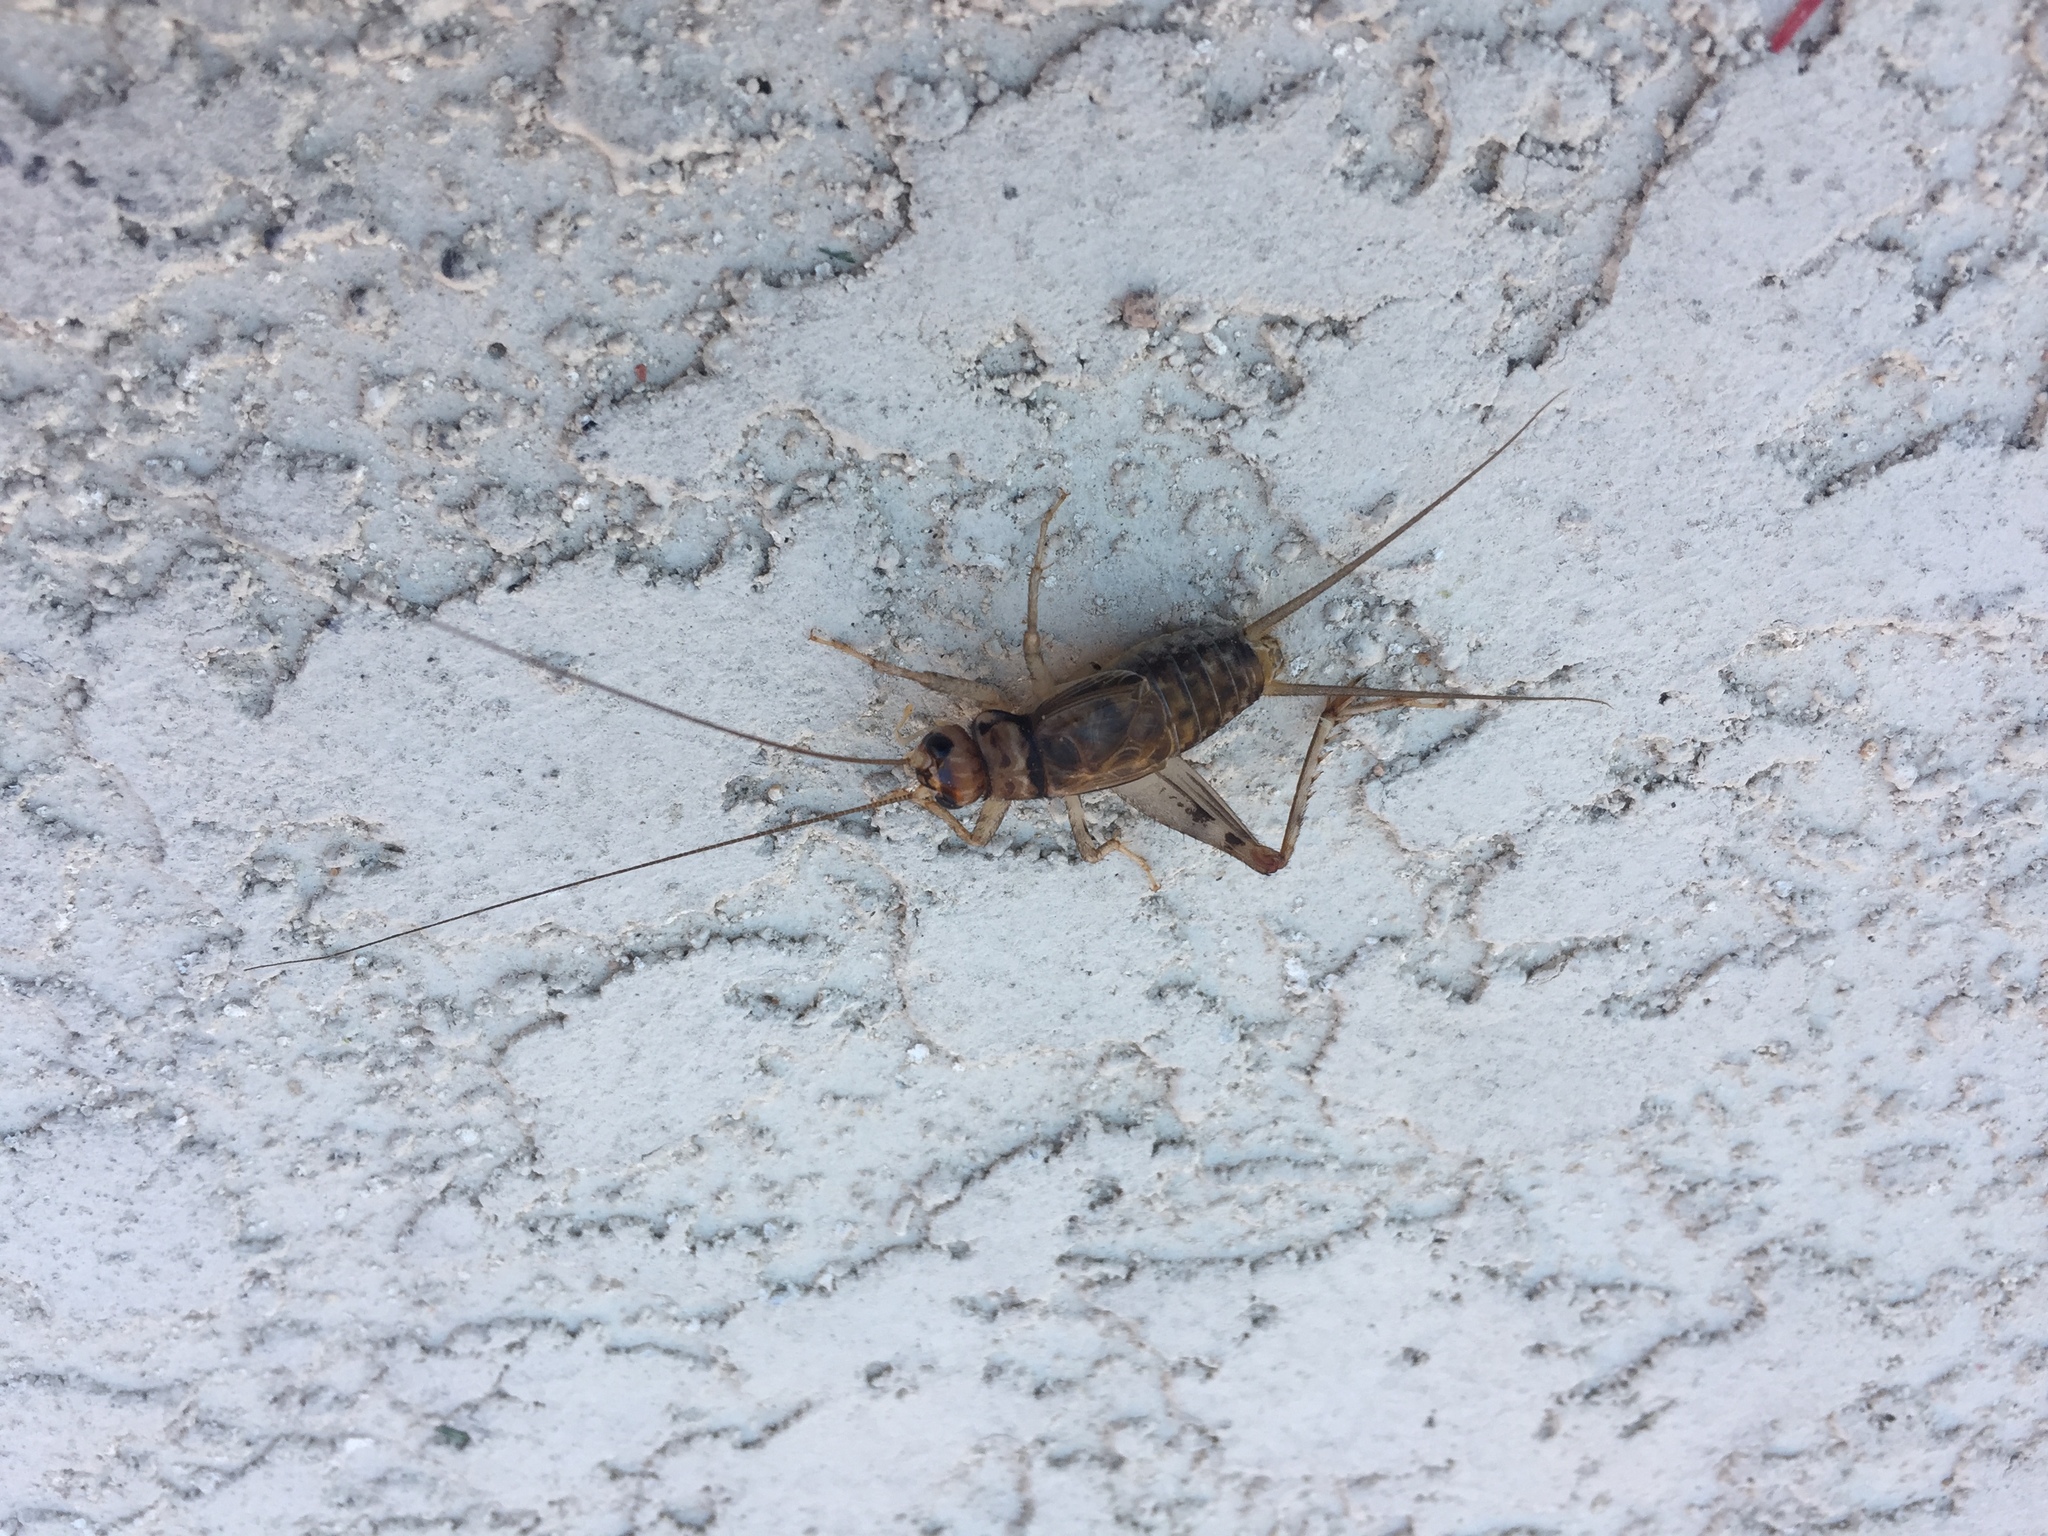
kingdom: Animalia
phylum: Arthropoda
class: Insecta
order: Orthoptera
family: Gryllidae
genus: Gryllodes
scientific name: Gryllodes sigillatus
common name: Tropical house cricket
